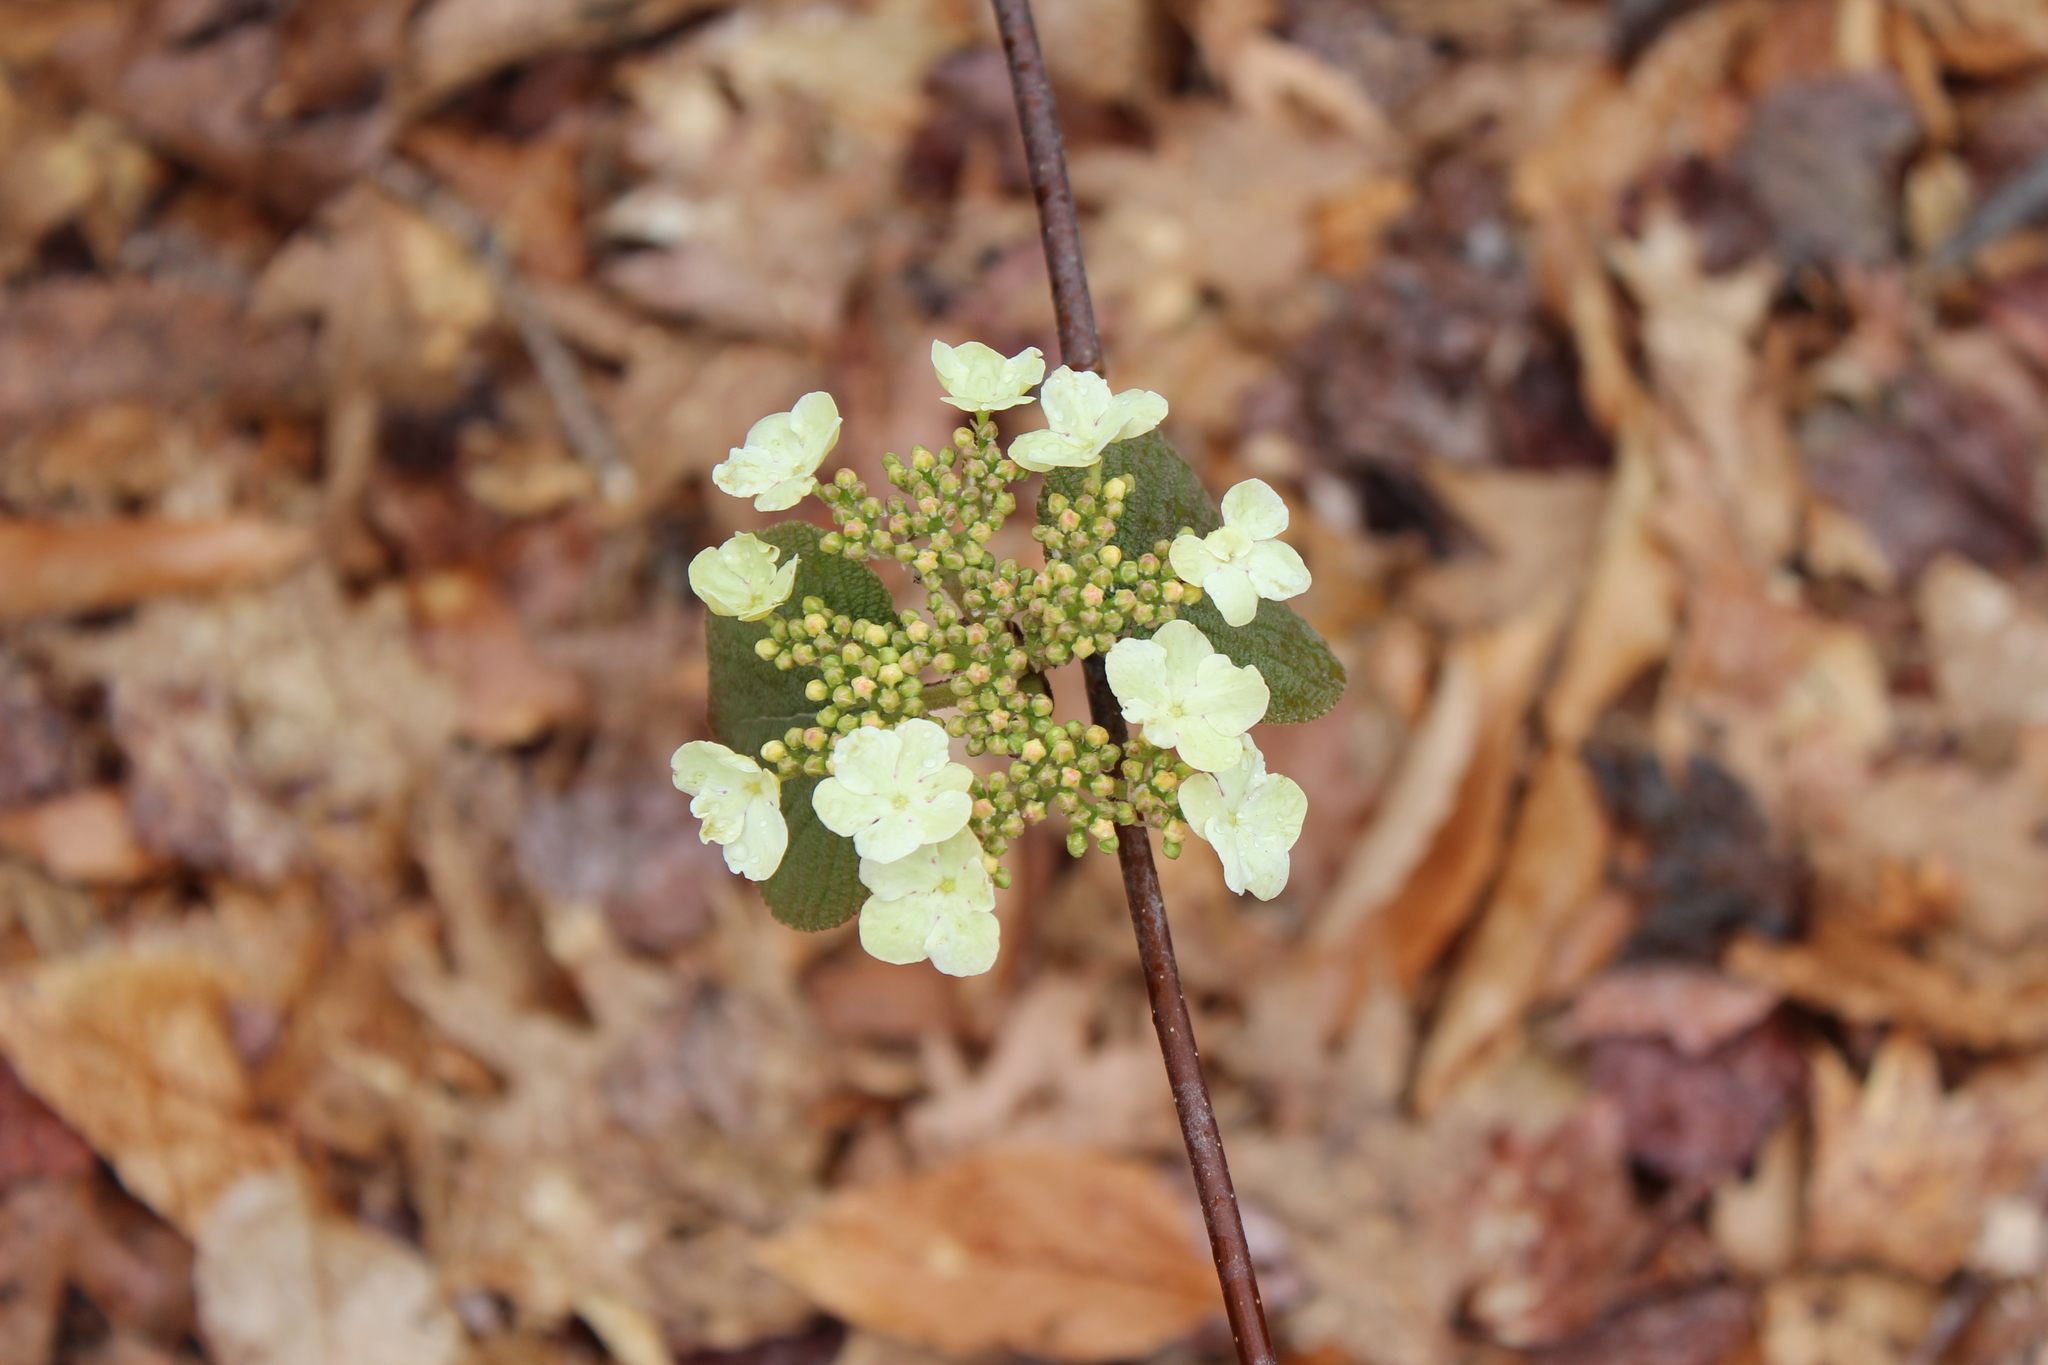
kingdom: Plantae
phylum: Tracheophyta
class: Magnoliopsida
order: Dipsacales
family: Viburnaceae
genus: Viburnum
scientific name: Viburnum lantanoides
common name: Hobblebush
